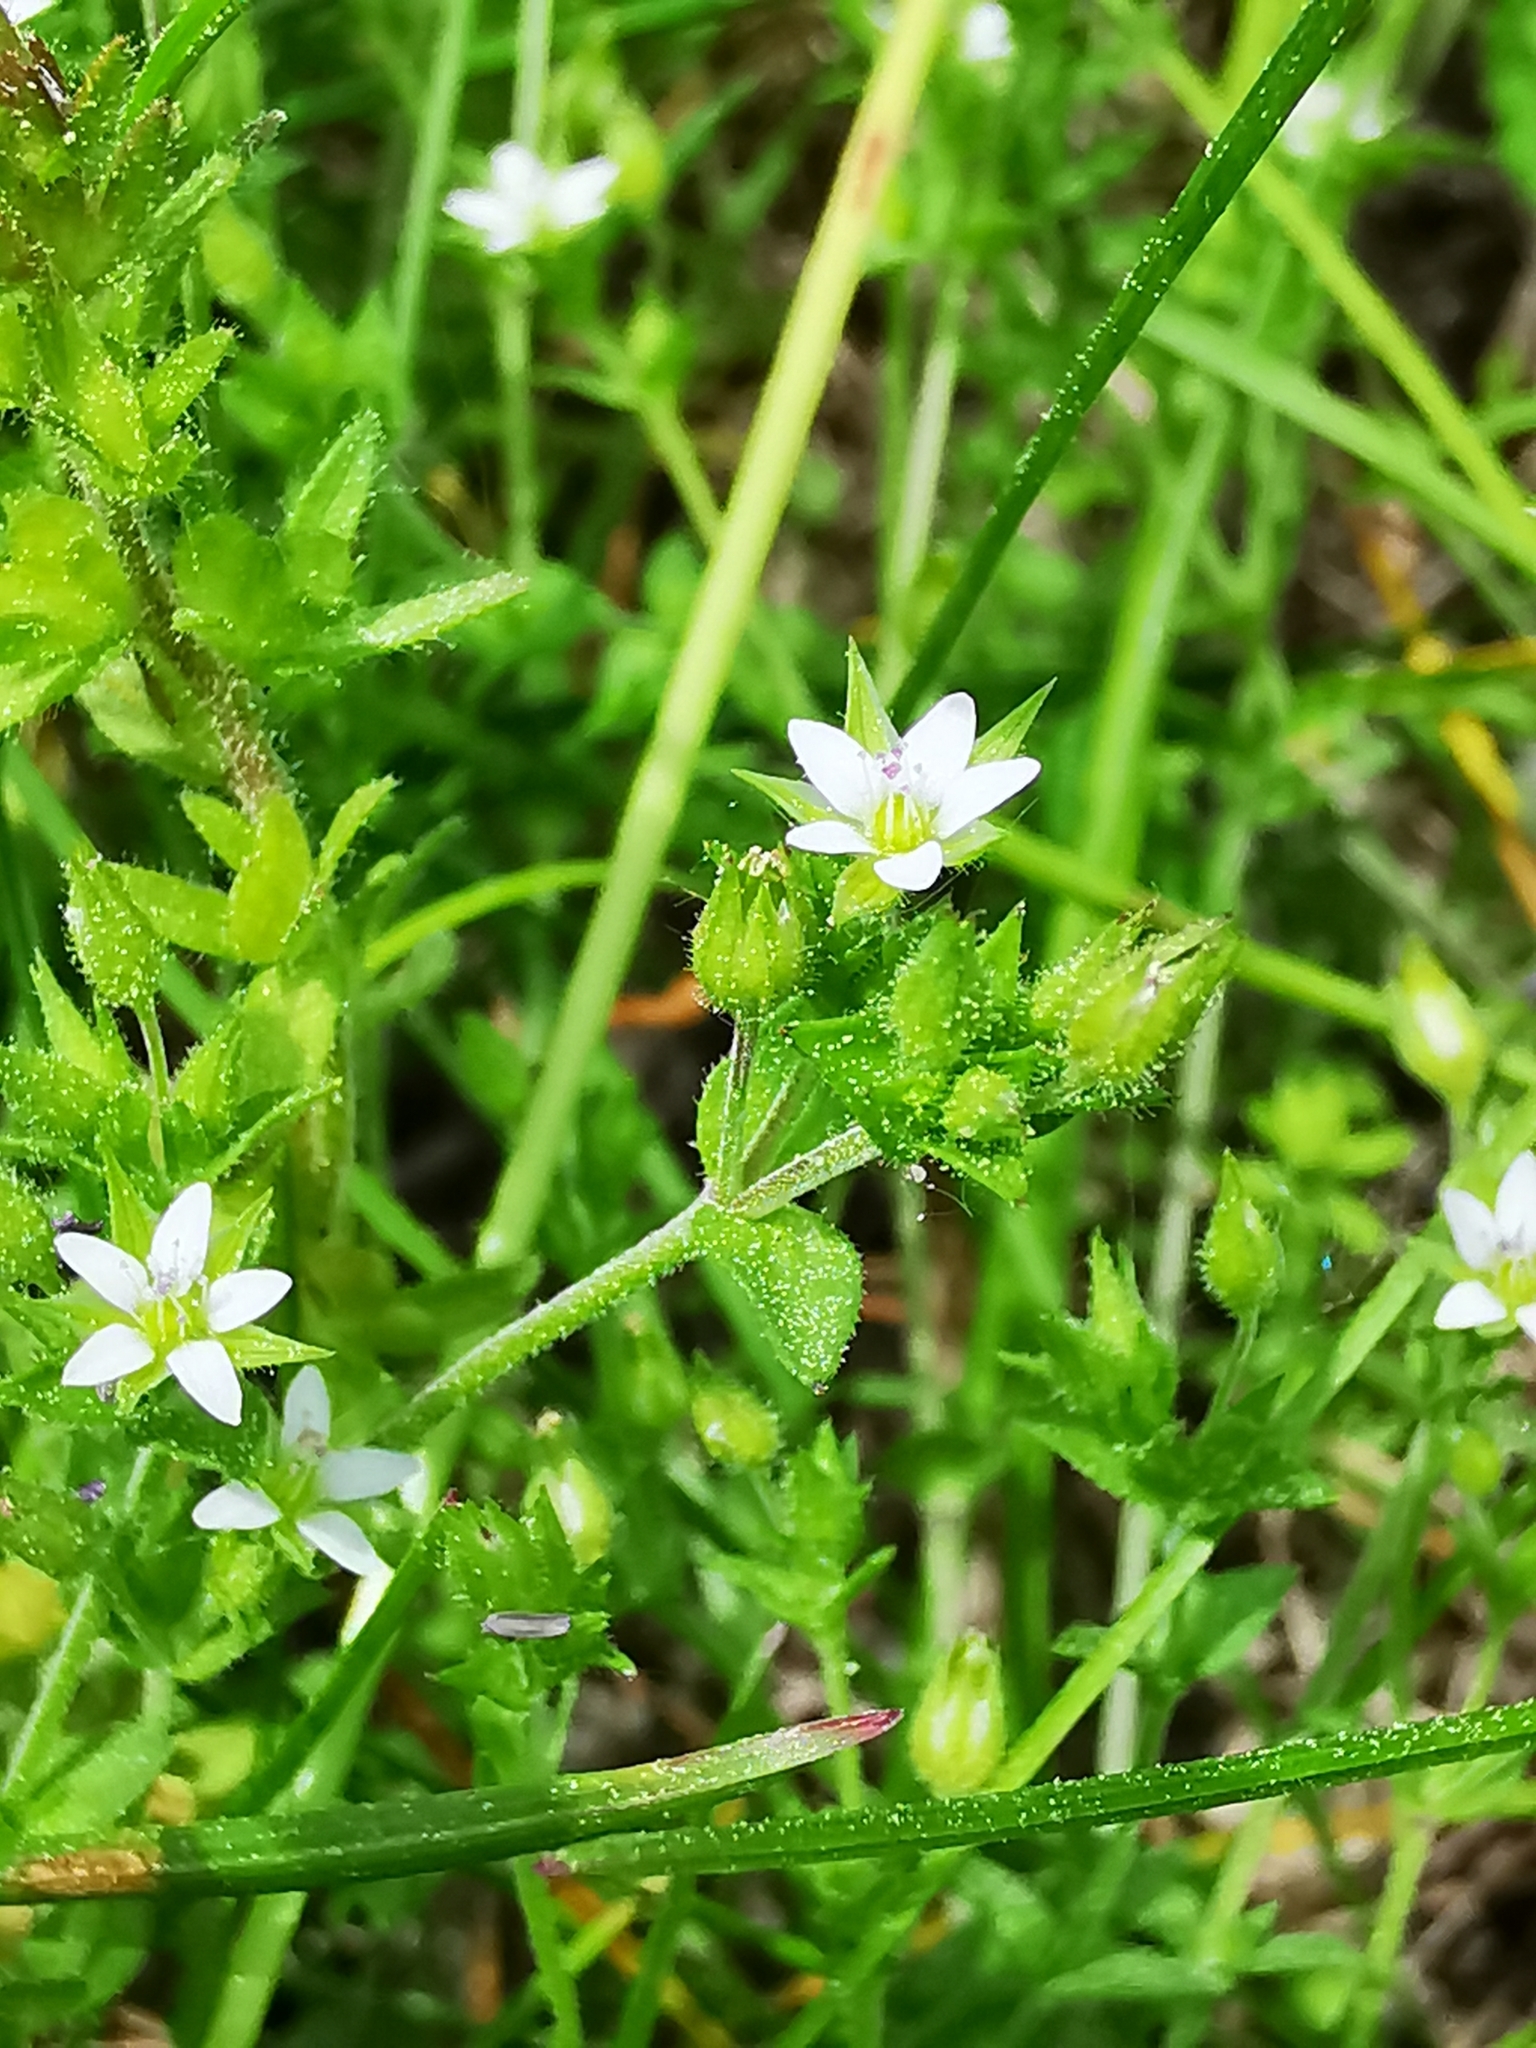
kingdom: Plantae
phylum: Tracheophyta
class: Magnoliopsida
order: Caryophyllales
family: Caryophyllaceae
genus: Arenaria
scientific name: Arenaria serpyllifolia
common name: Thyme-leaved sandwort
